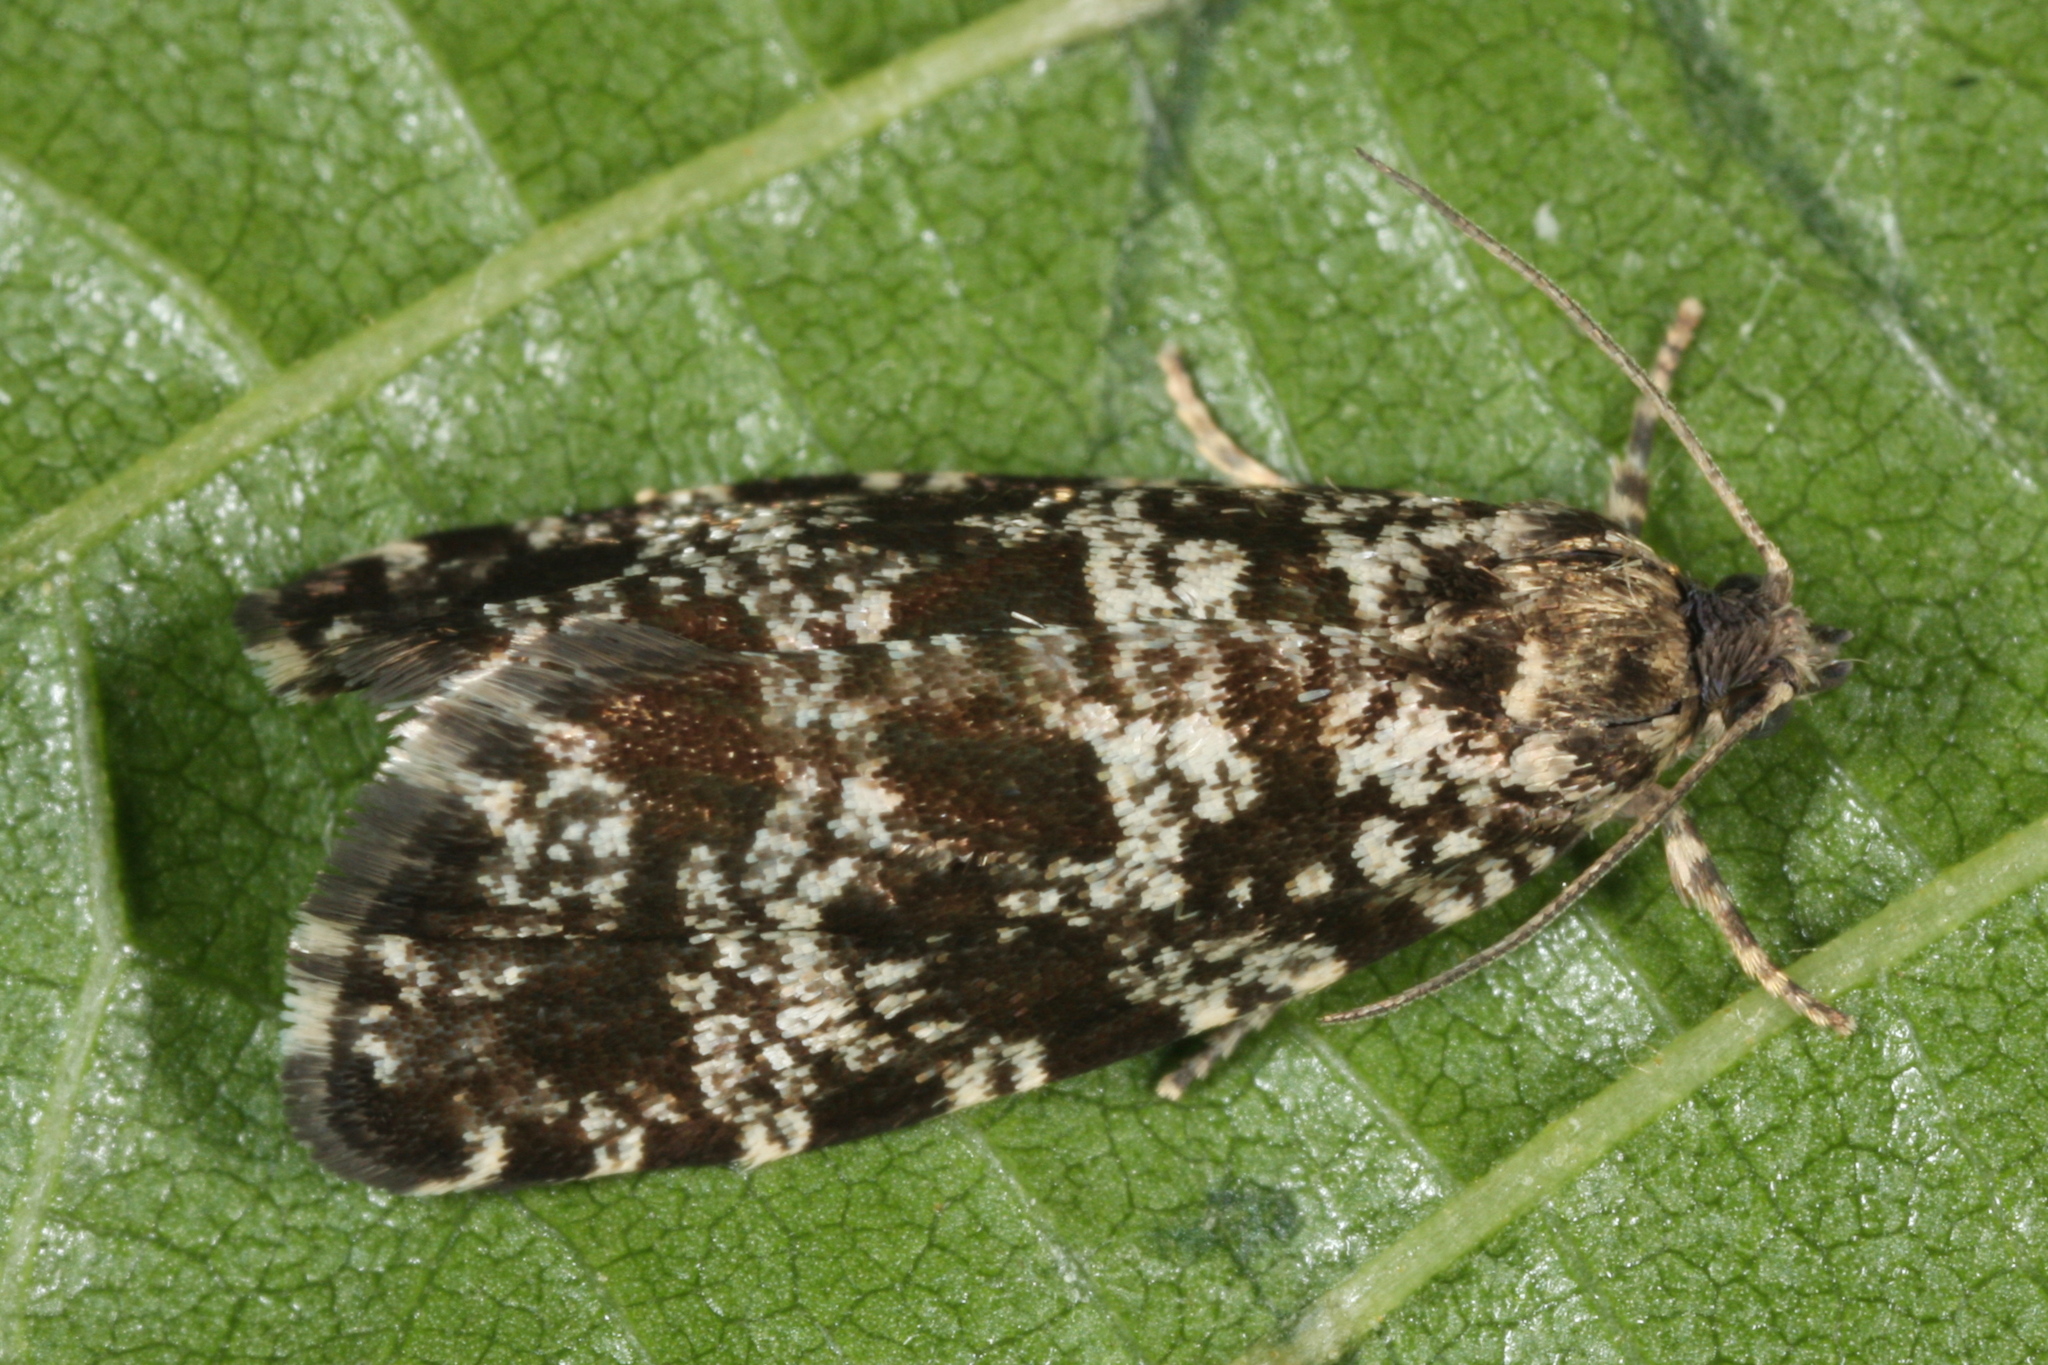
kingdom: Animalia
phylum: Arthropoda
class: Insecta
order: Lepidoptera
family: Tortricidae
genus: Pseudohermenias
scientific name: Pseudohermenias hercyniana
